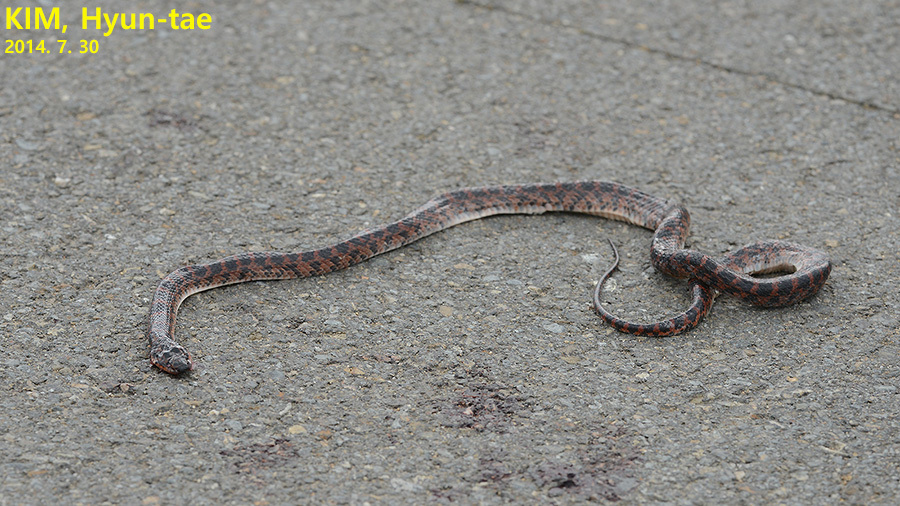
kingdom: Animalia
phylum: Chordata
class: Squamata
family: Colubridae
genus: Lycodon
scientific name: Lycodon rufozonatus
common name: Red-banded snake
